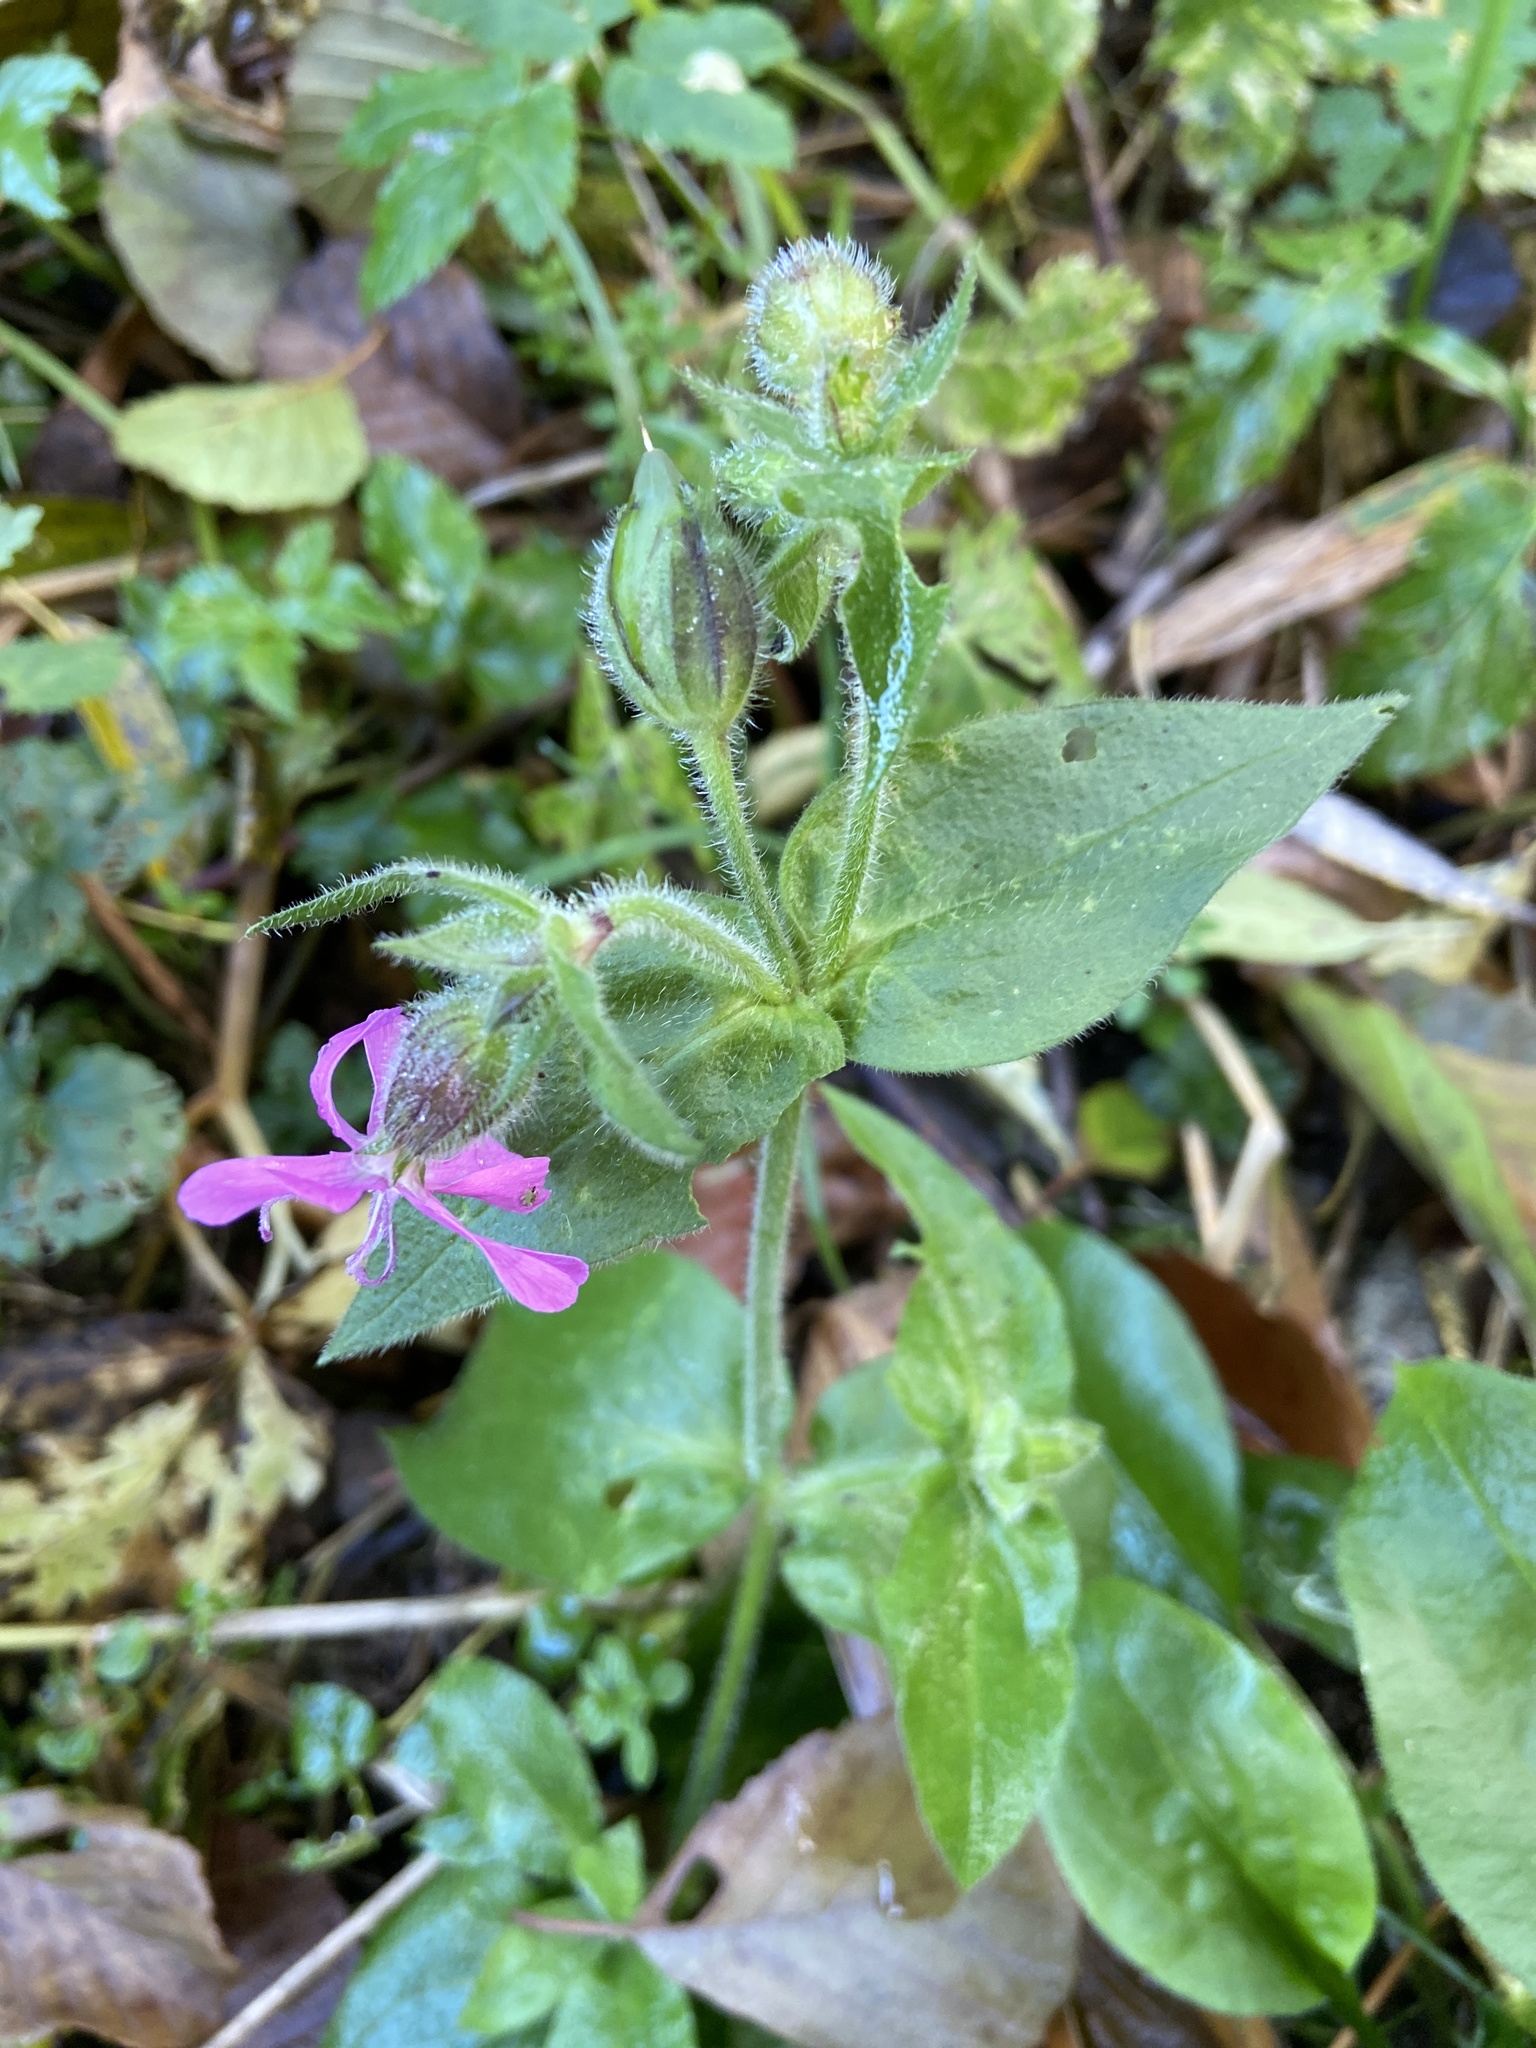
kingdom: Plantae
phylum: Tracheophyta
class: Magnoliopsida
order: Caryophyllales
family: Caryophyllaceae
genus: Silene
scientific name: Silene dioica
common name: Red campion
